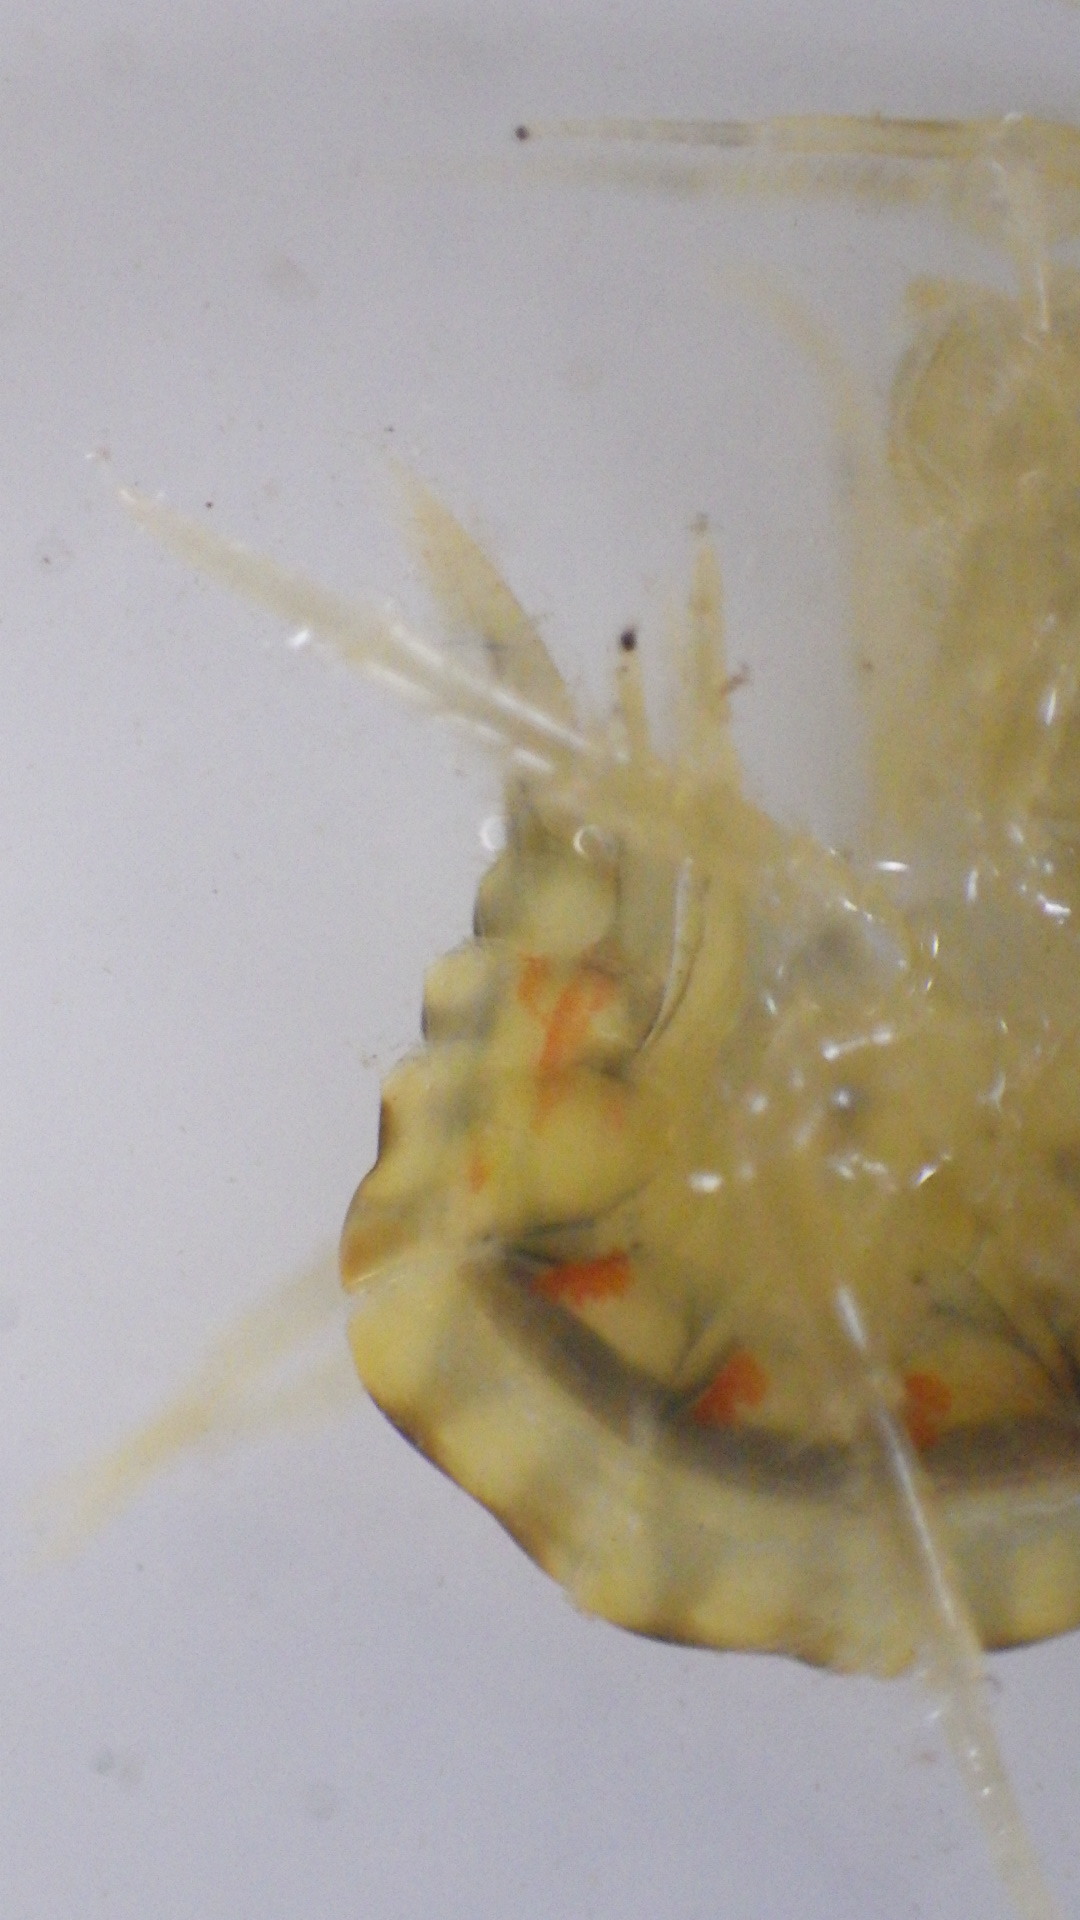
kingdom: Animalia
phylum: Arthropoda
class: Malacostraca
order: Amphipoda
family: Gammaridae
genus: Gammarus
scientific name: Gammarus fasciatus
